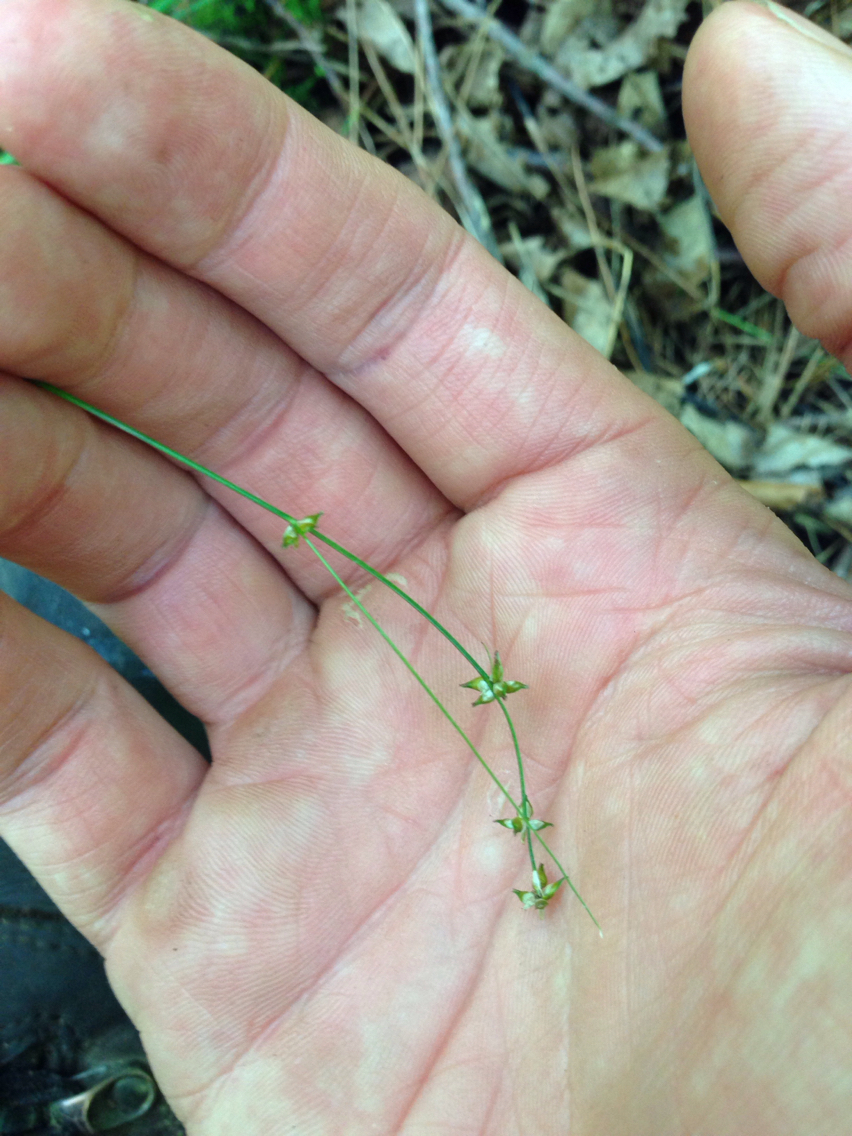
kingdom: Plantae
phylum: Tracheophyta
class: Liliopsida
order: Poales
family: Cyperaceae
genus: Carex
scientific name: Carex rosea
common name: Curly-styled wood sedge
